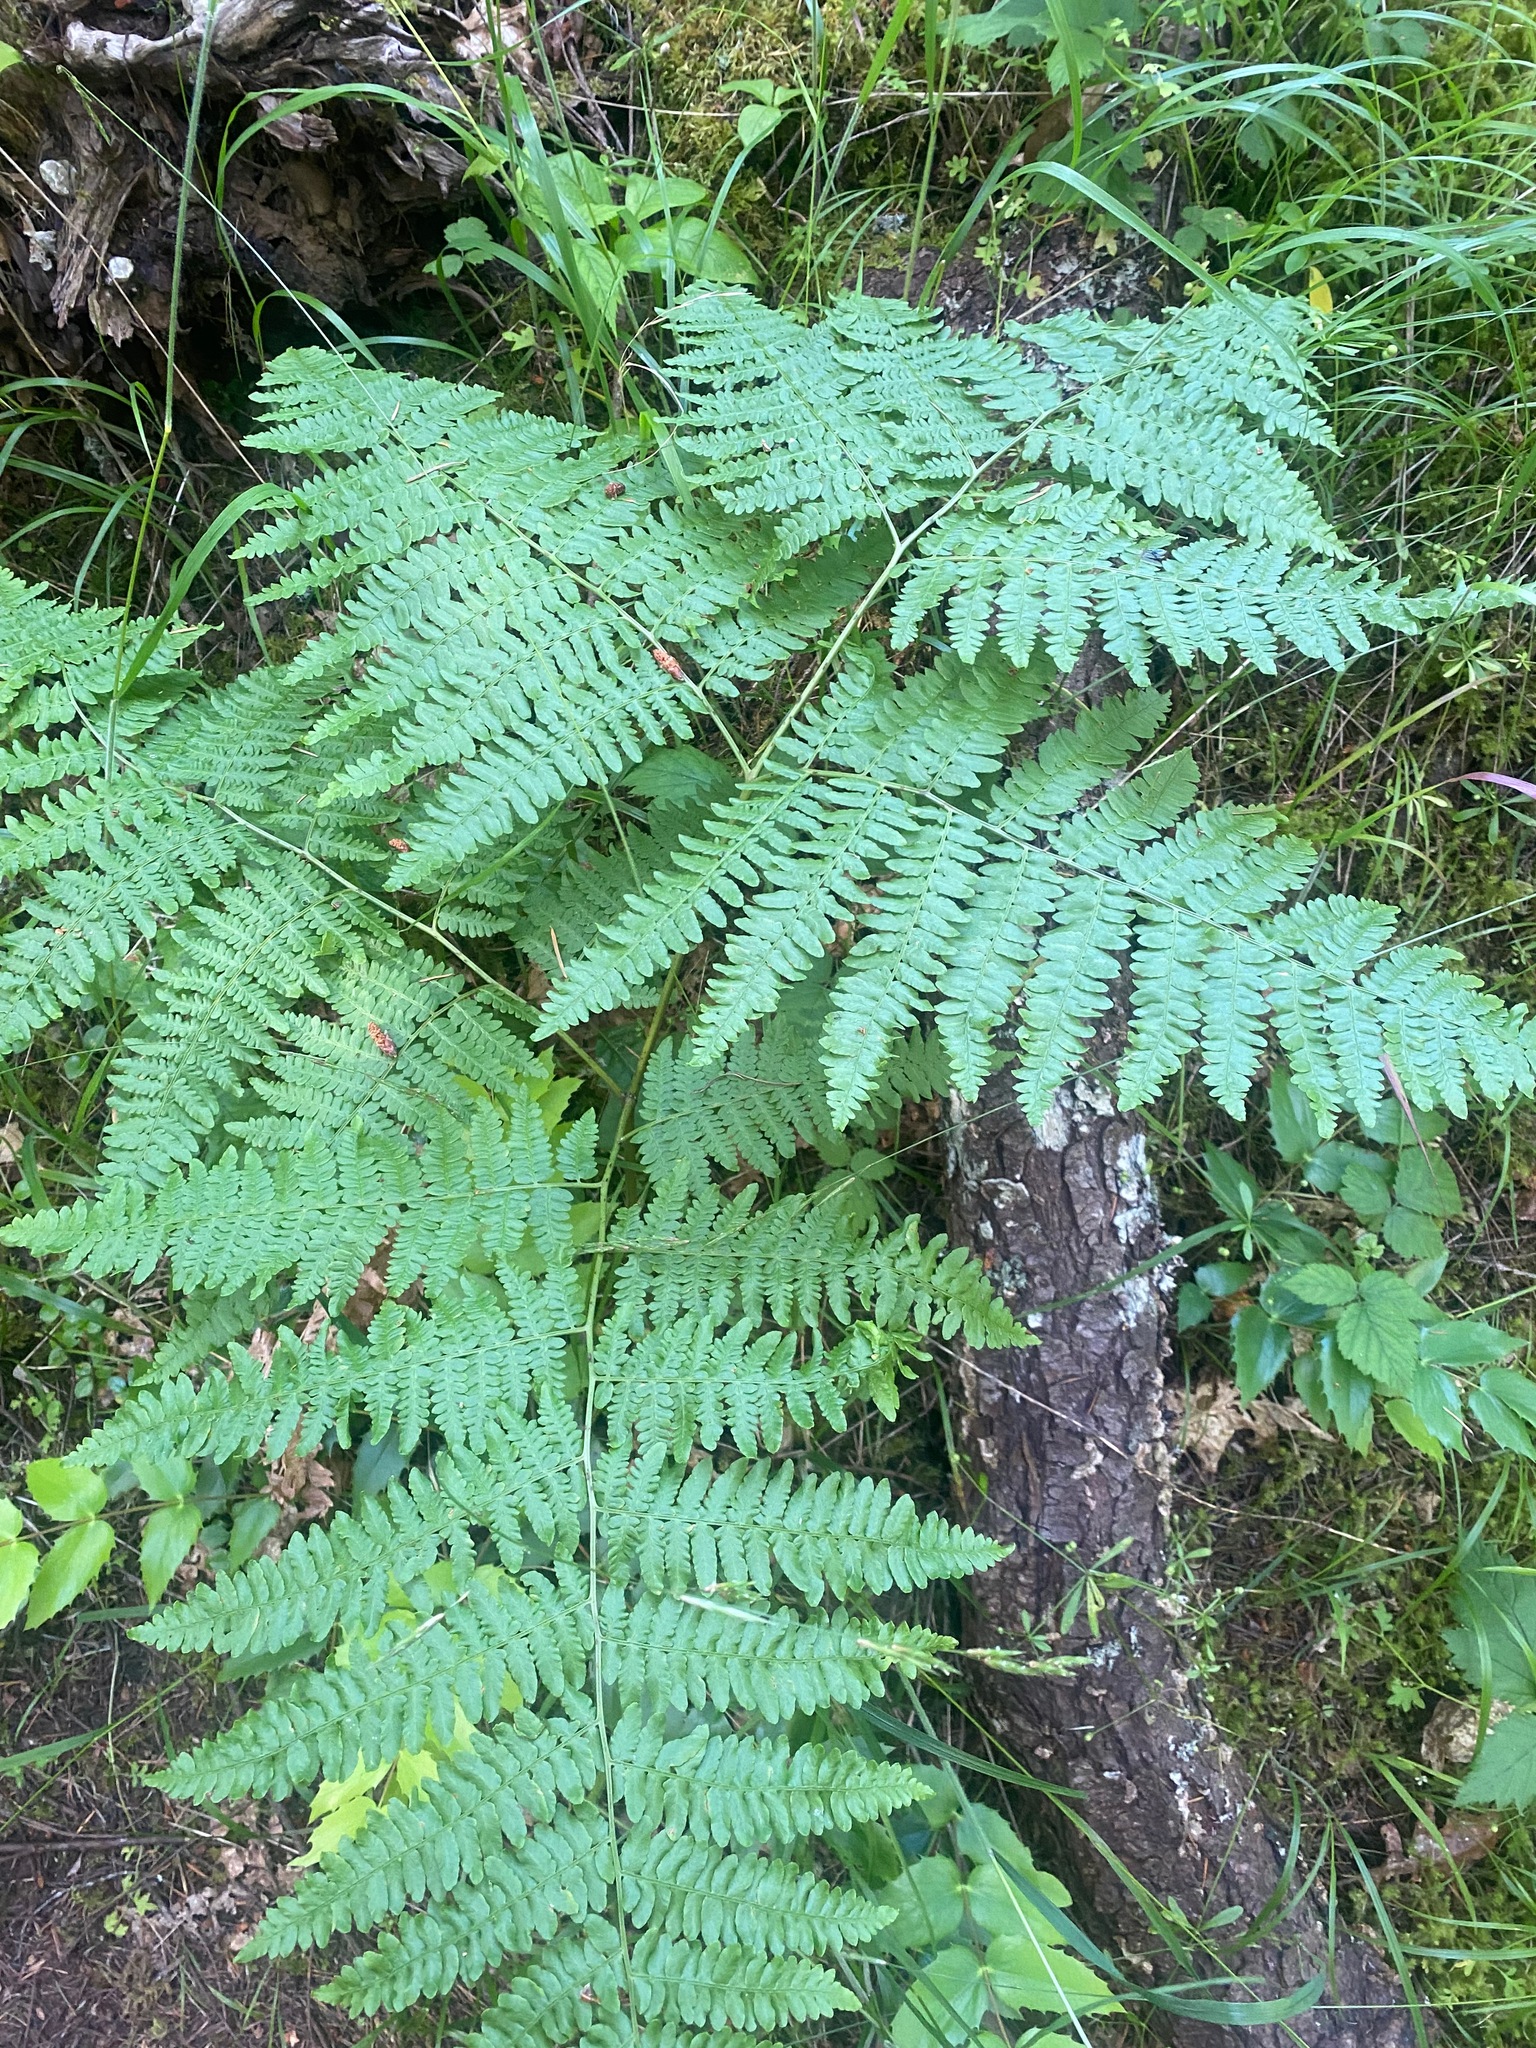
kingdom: Plantae
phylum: Tracheophyta
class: Polypodiopsida
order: Polypodiales
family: Dennstaedtiaceae
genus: Pteridium
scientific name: Pteridium aquilinum
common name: Bracken
